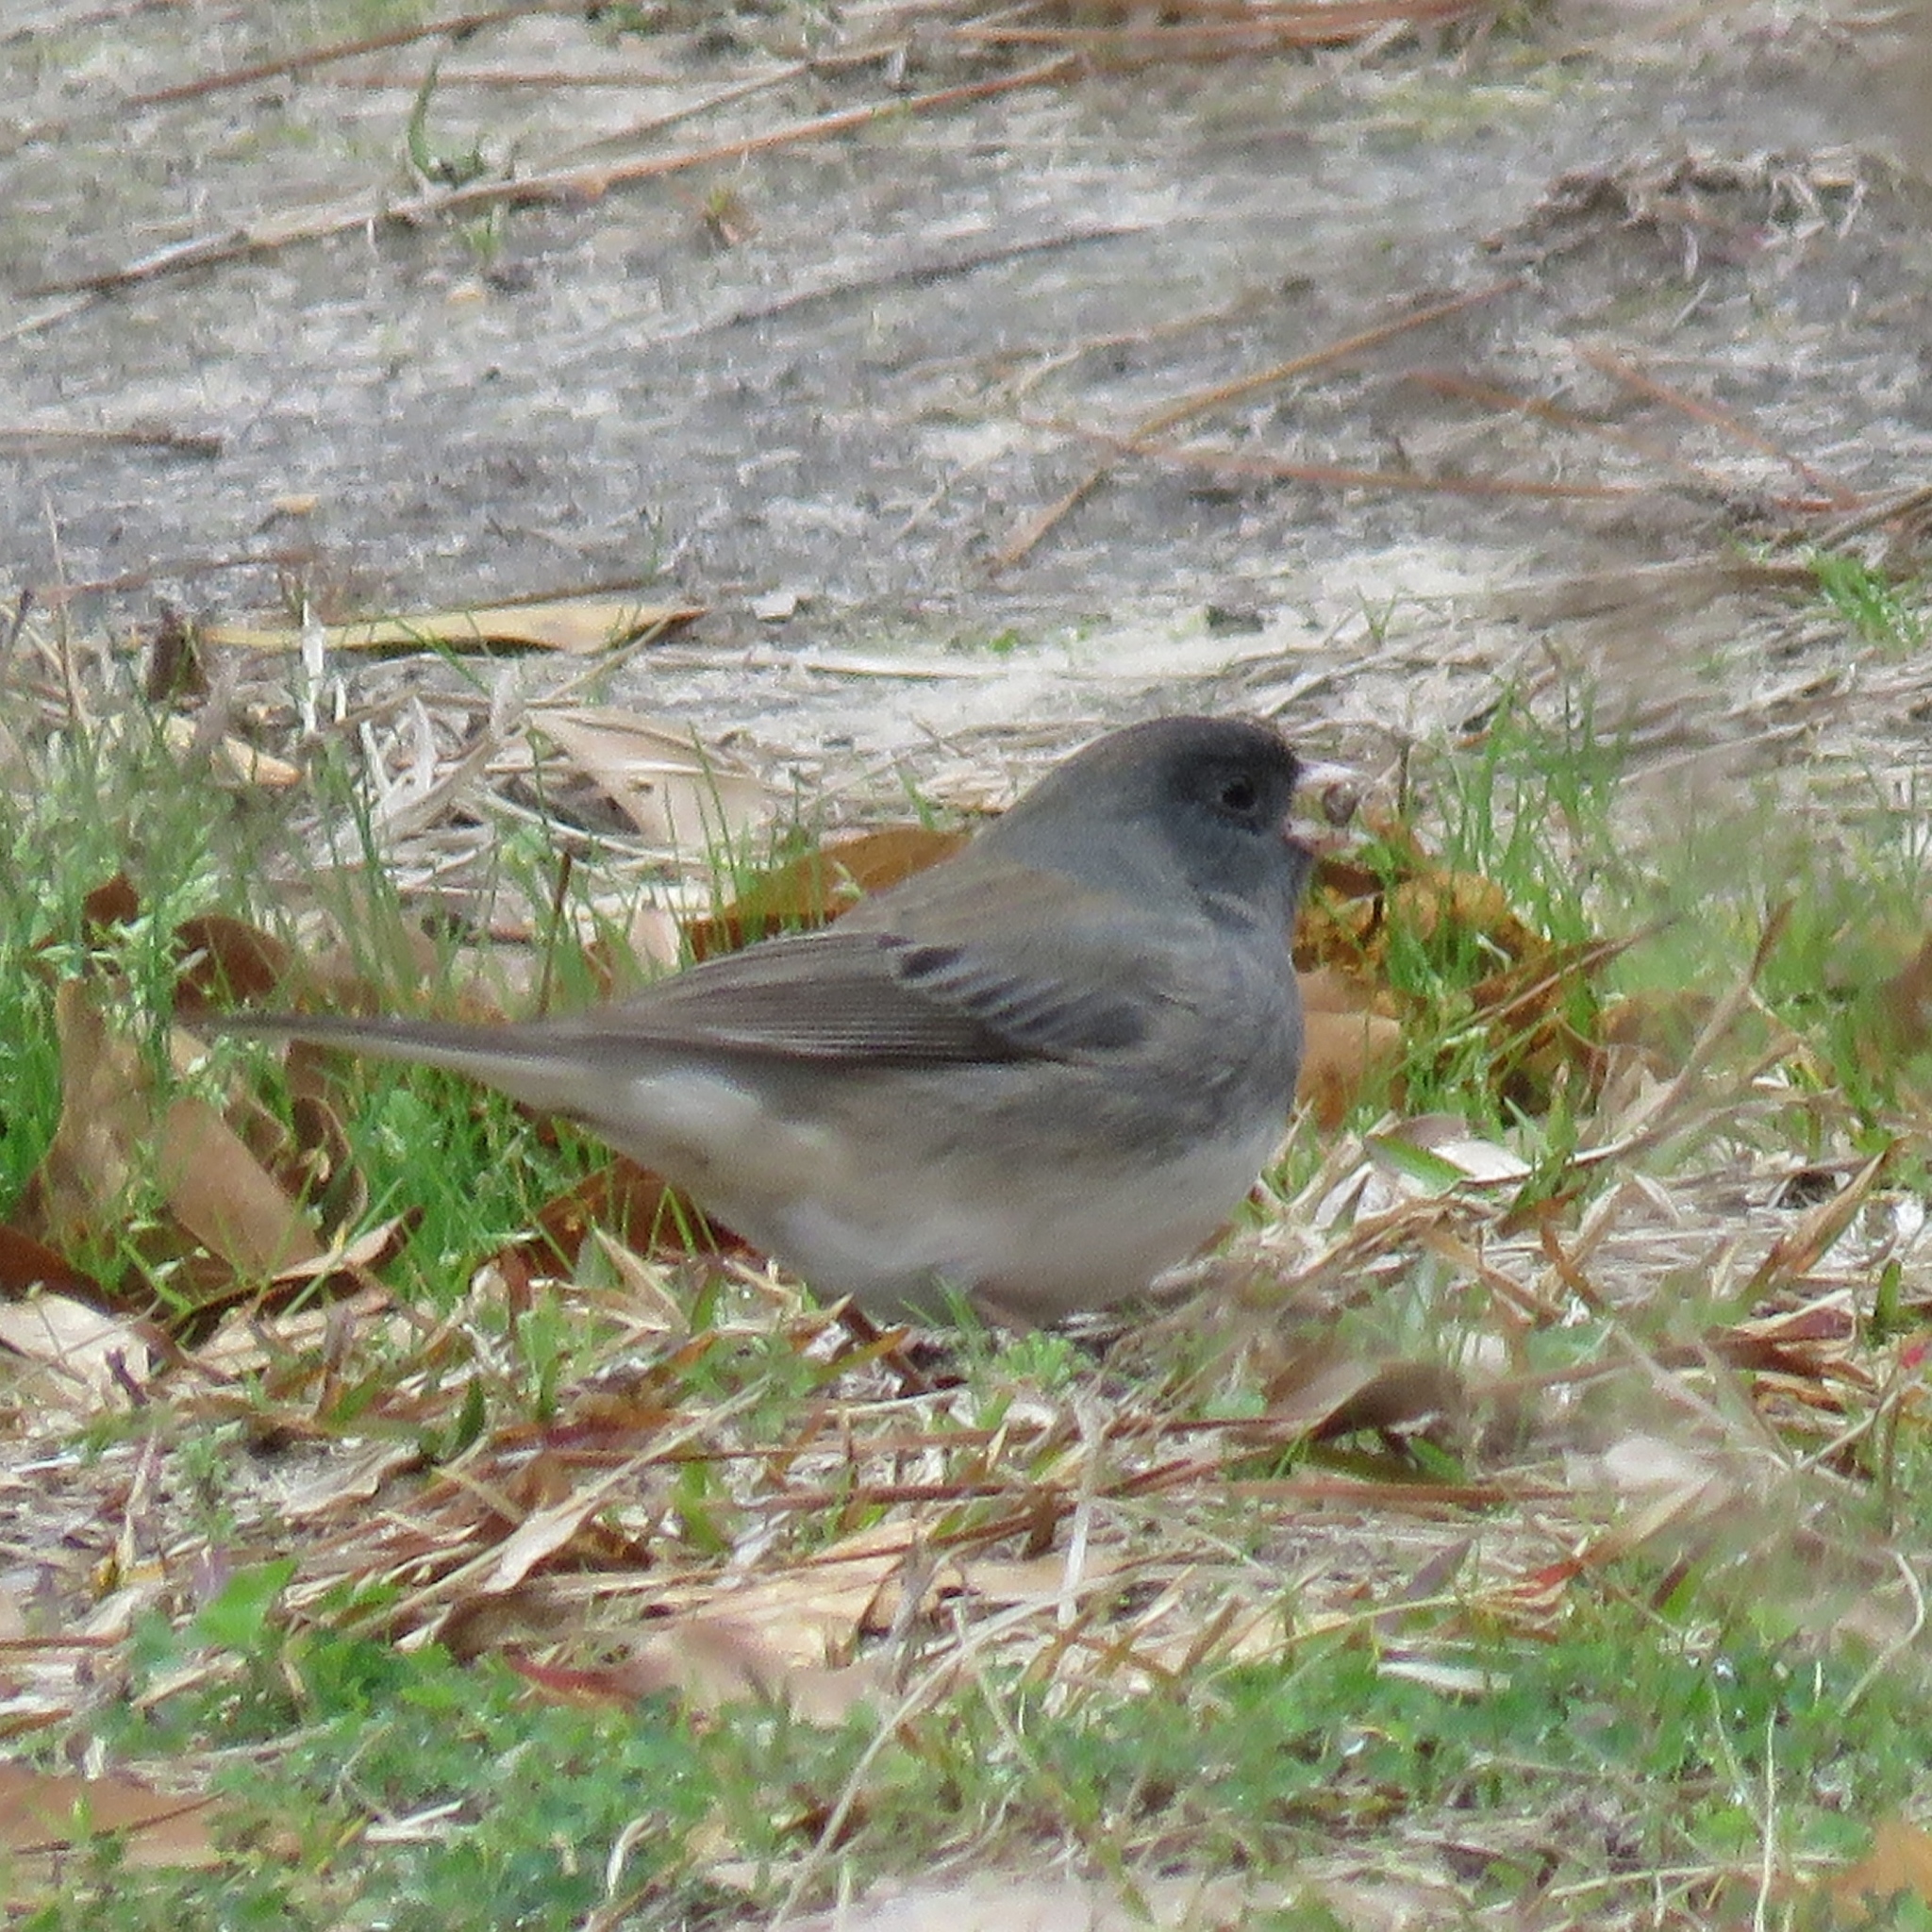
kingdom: Animalia
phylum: Chordata
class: Aves
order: Passeriformes
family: Passerellidae
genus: Junco
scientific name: Junco hyemalis
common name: Dark-eyed junco
